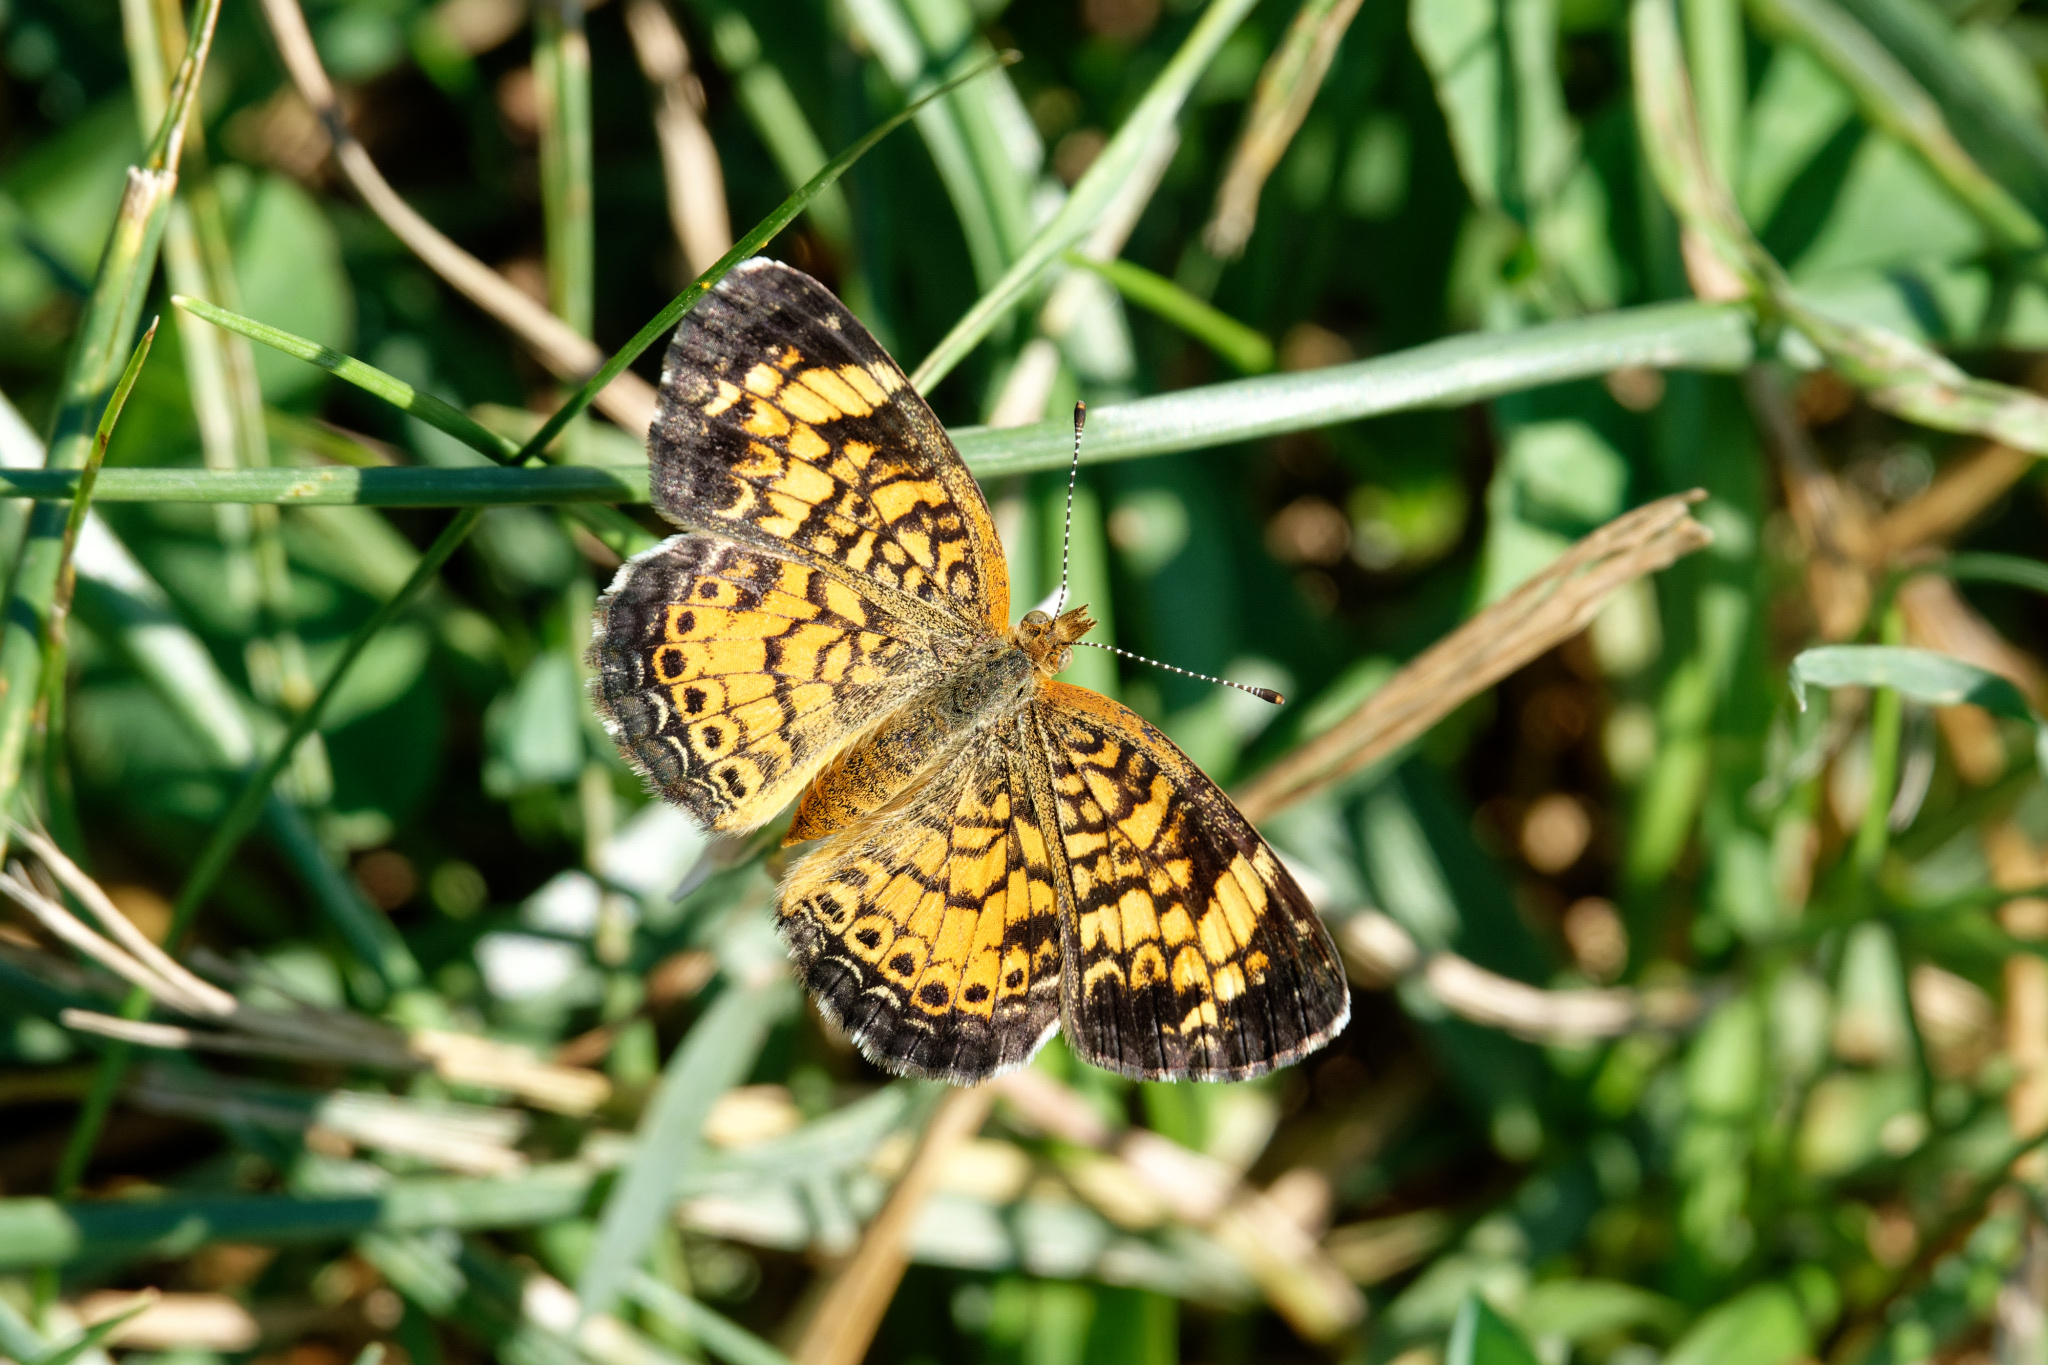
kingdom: Animalia
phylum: Arthropoda
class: Insecta
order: Lepidoptera
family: Nymphalidae
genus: Phyciodes
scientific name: Phyciodes tharos
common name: Pearl crescent
